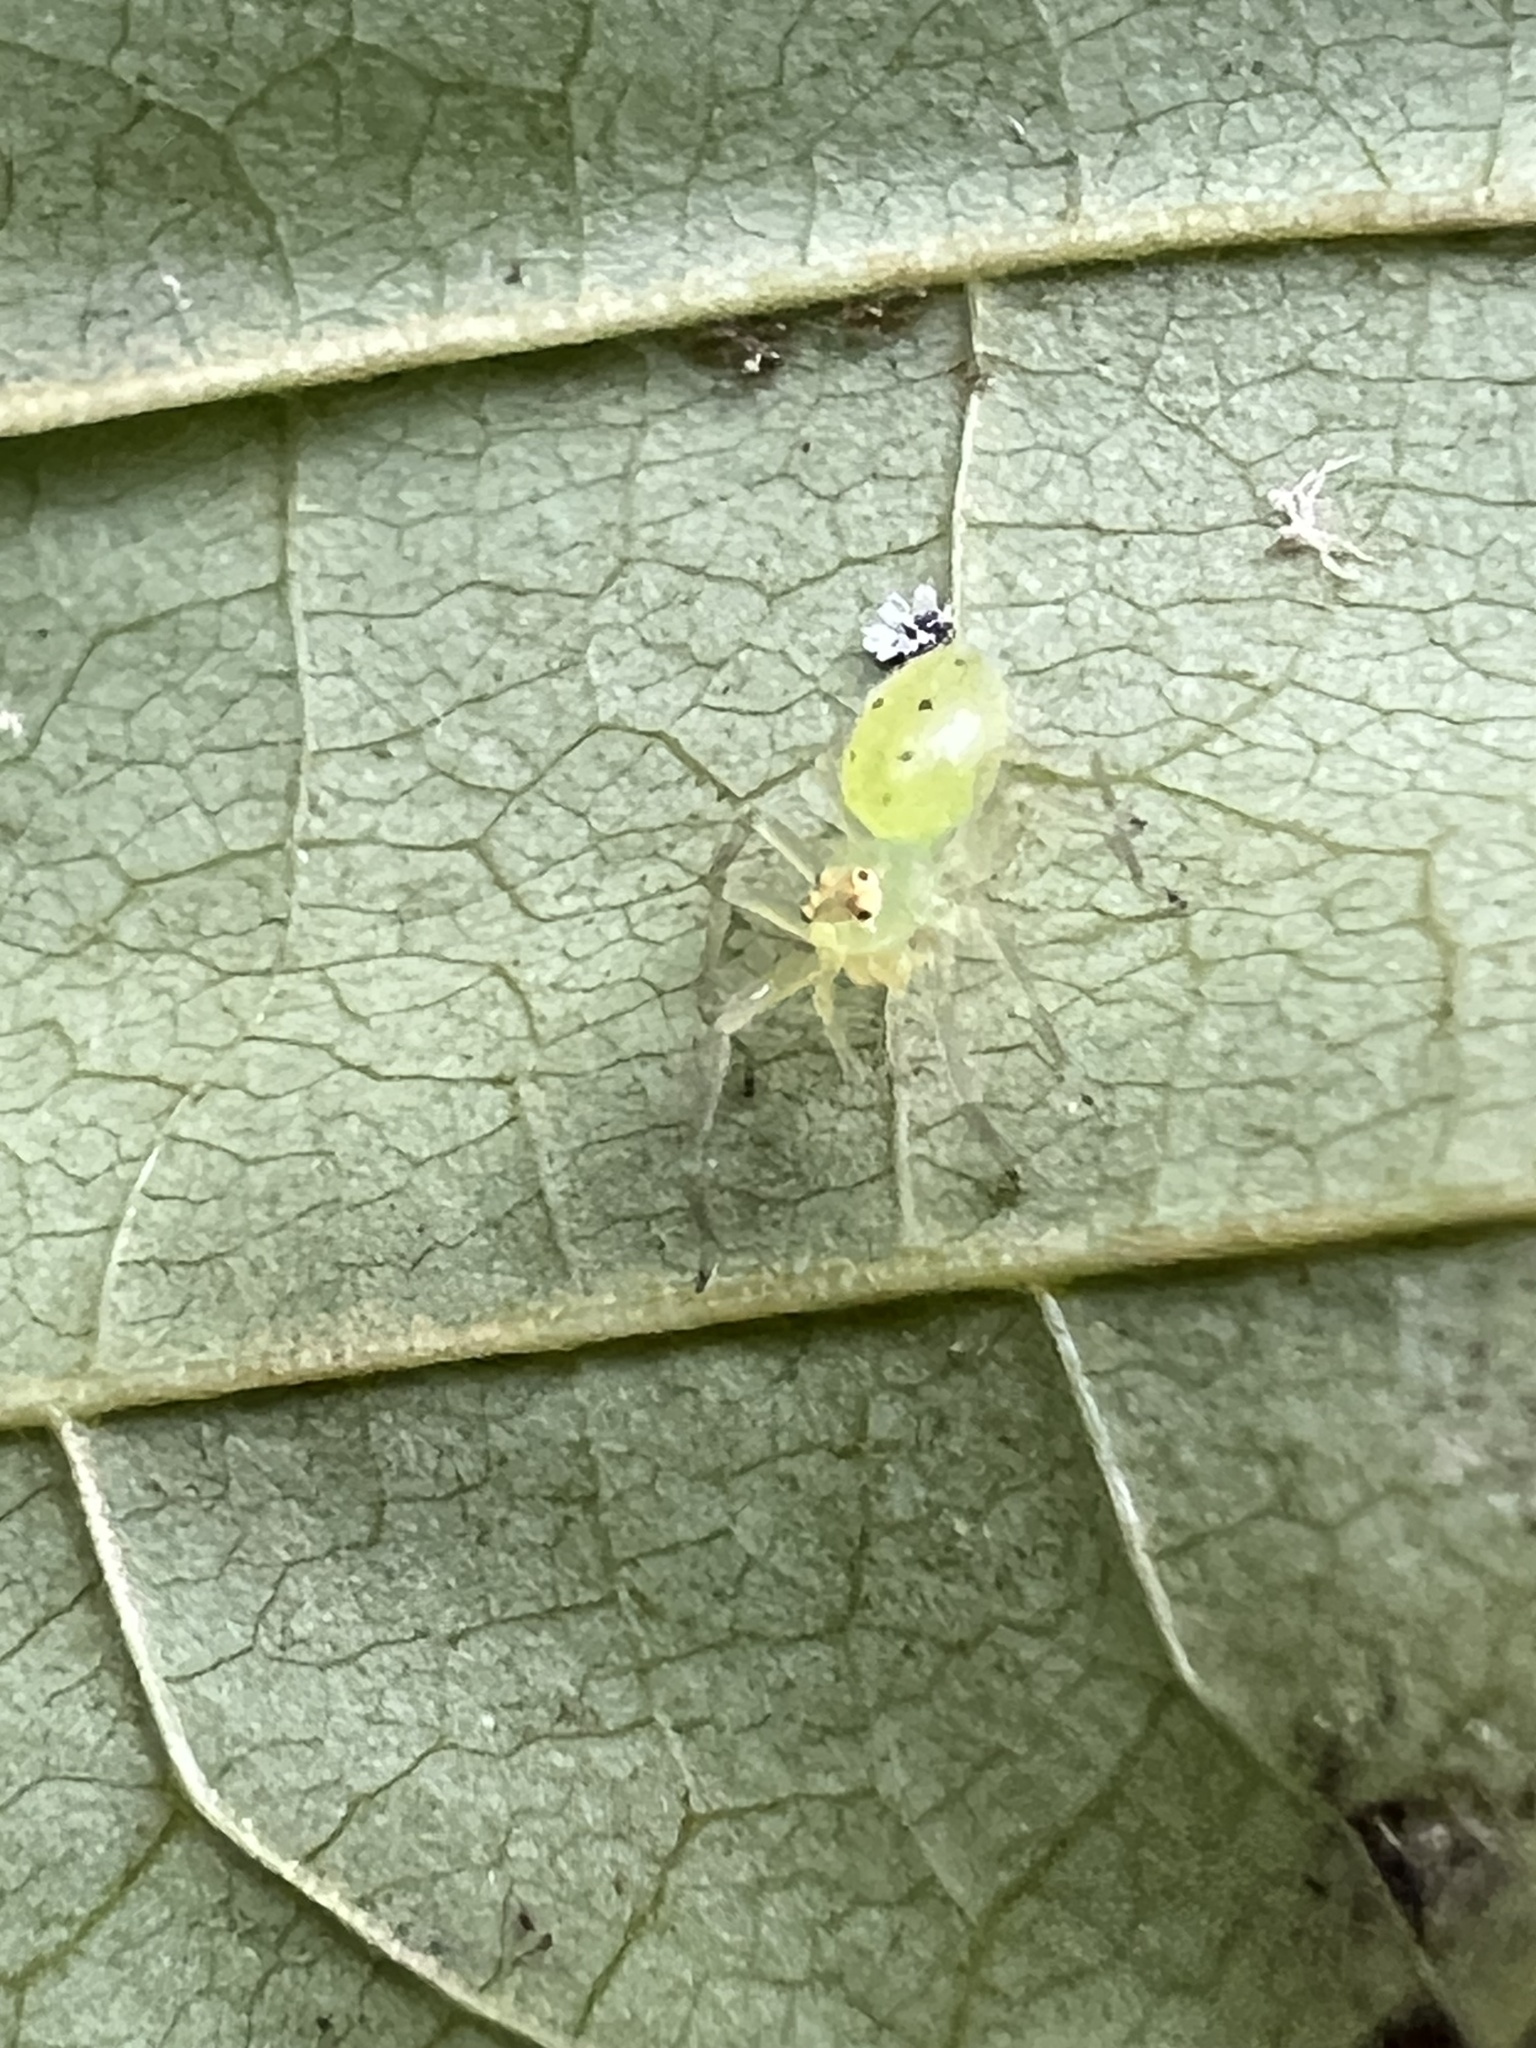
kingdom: Animalia
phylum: Arthropoda
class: Arachnida
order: Araneae
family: Salticidae
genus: Lyssomanes
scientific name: Lyssomanes viridis
